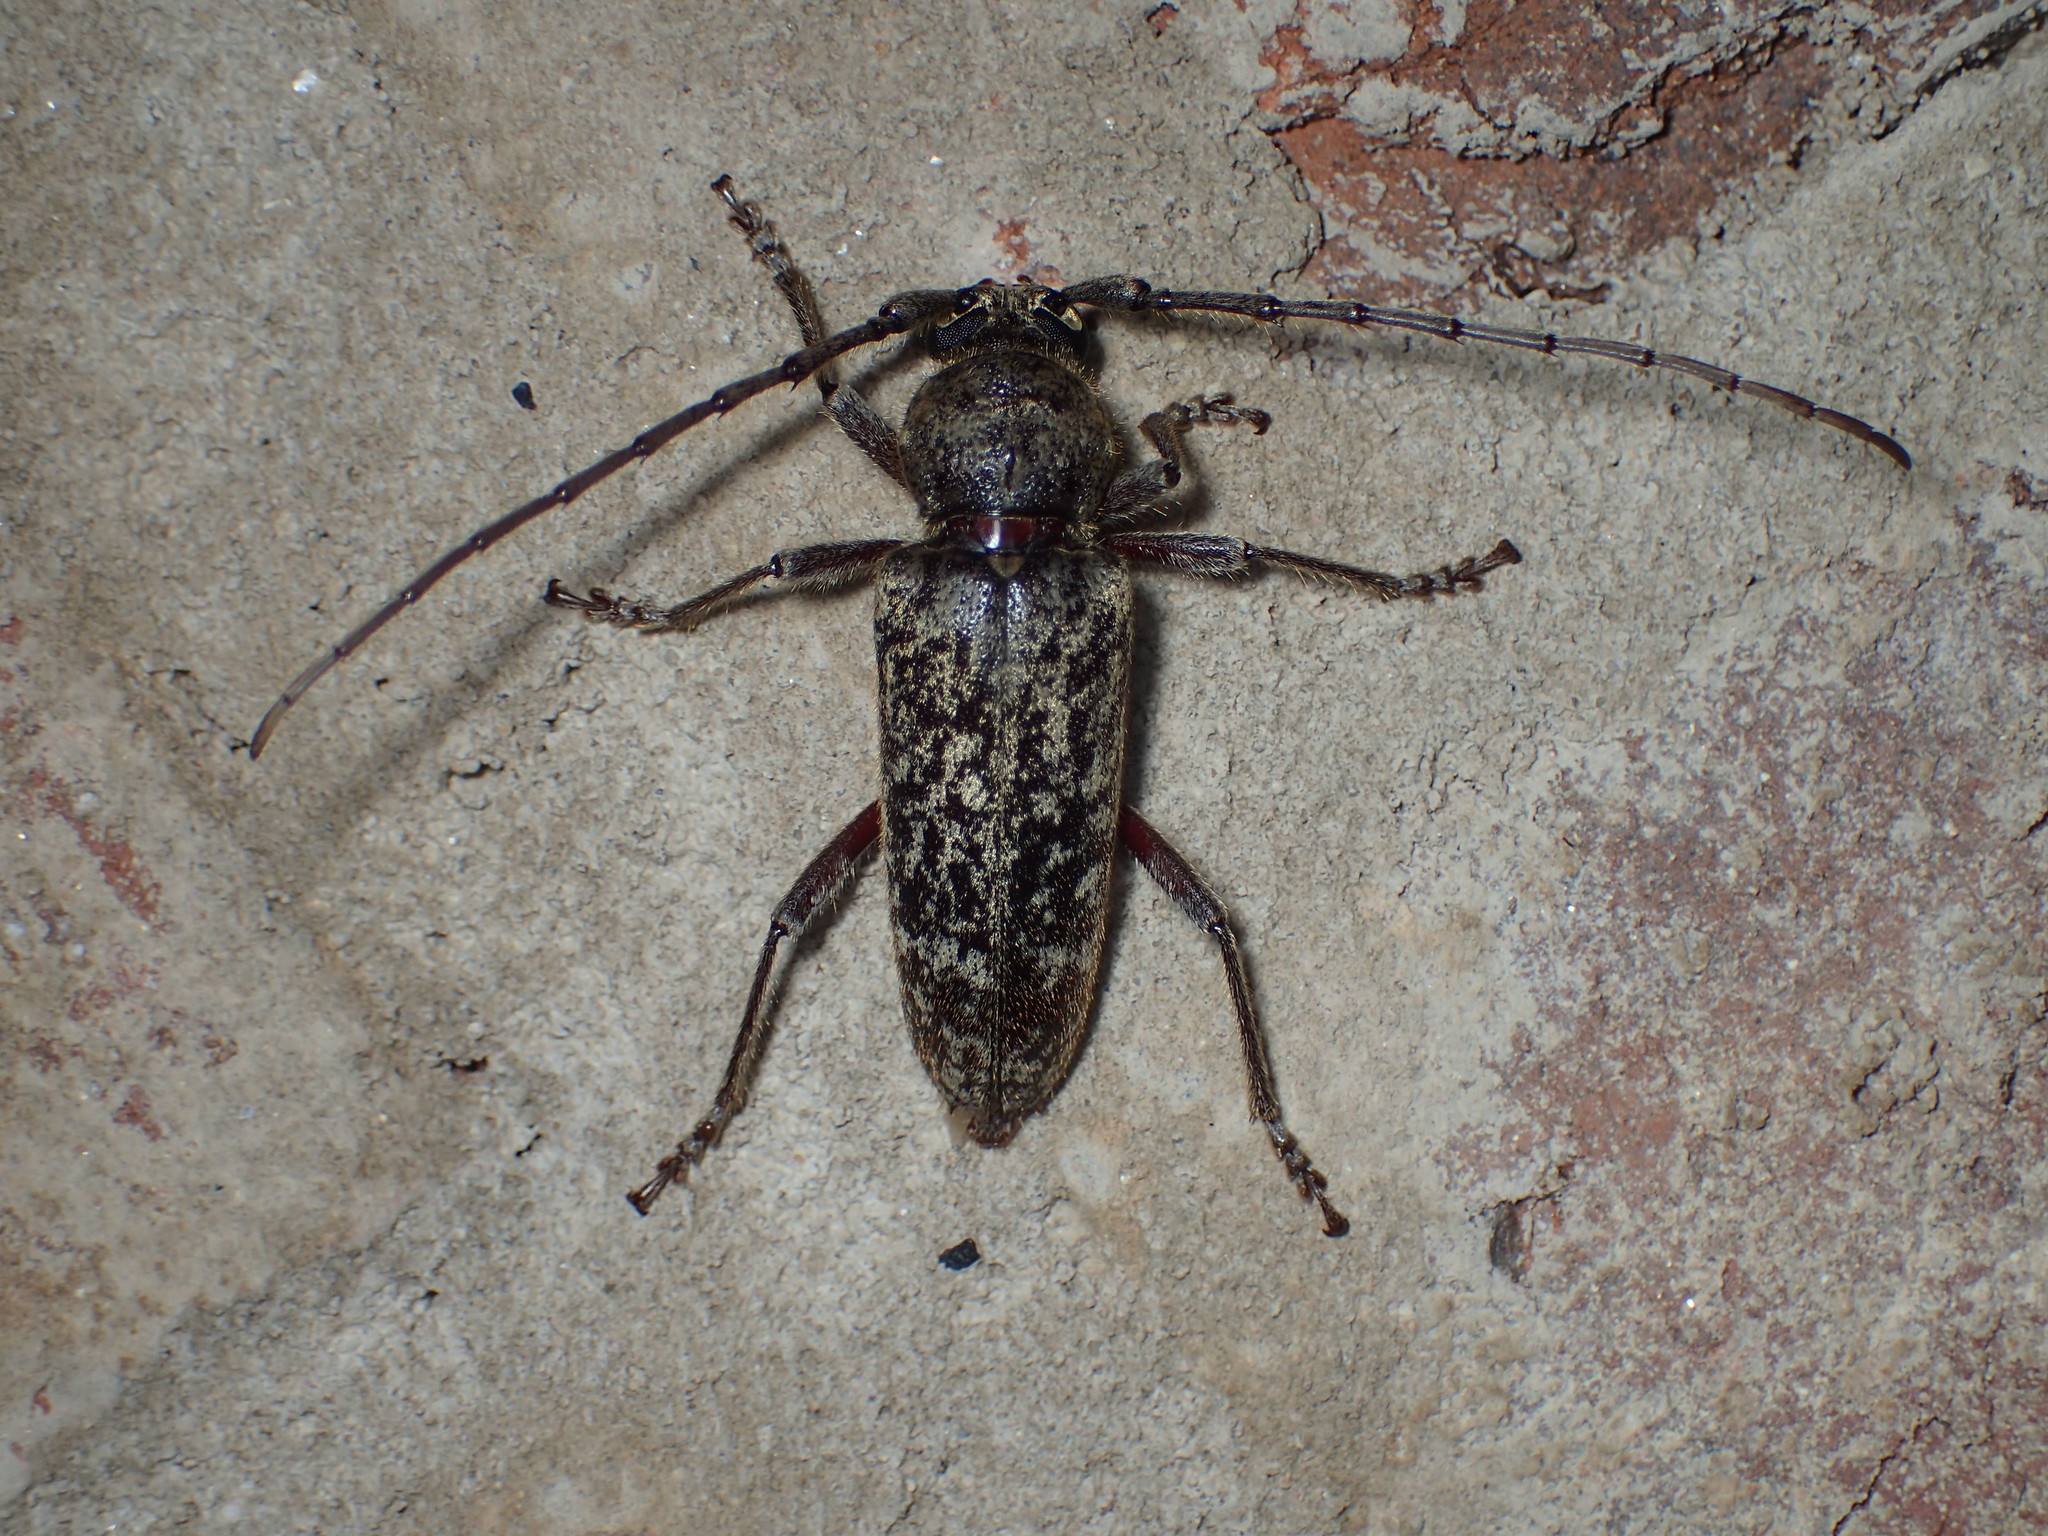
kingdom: Animalia
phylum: Arthropoda
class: Insecta
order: Coleoptera
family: Cerambycidae
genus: Enaphalodes
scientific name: Enaphalodes atomarius
